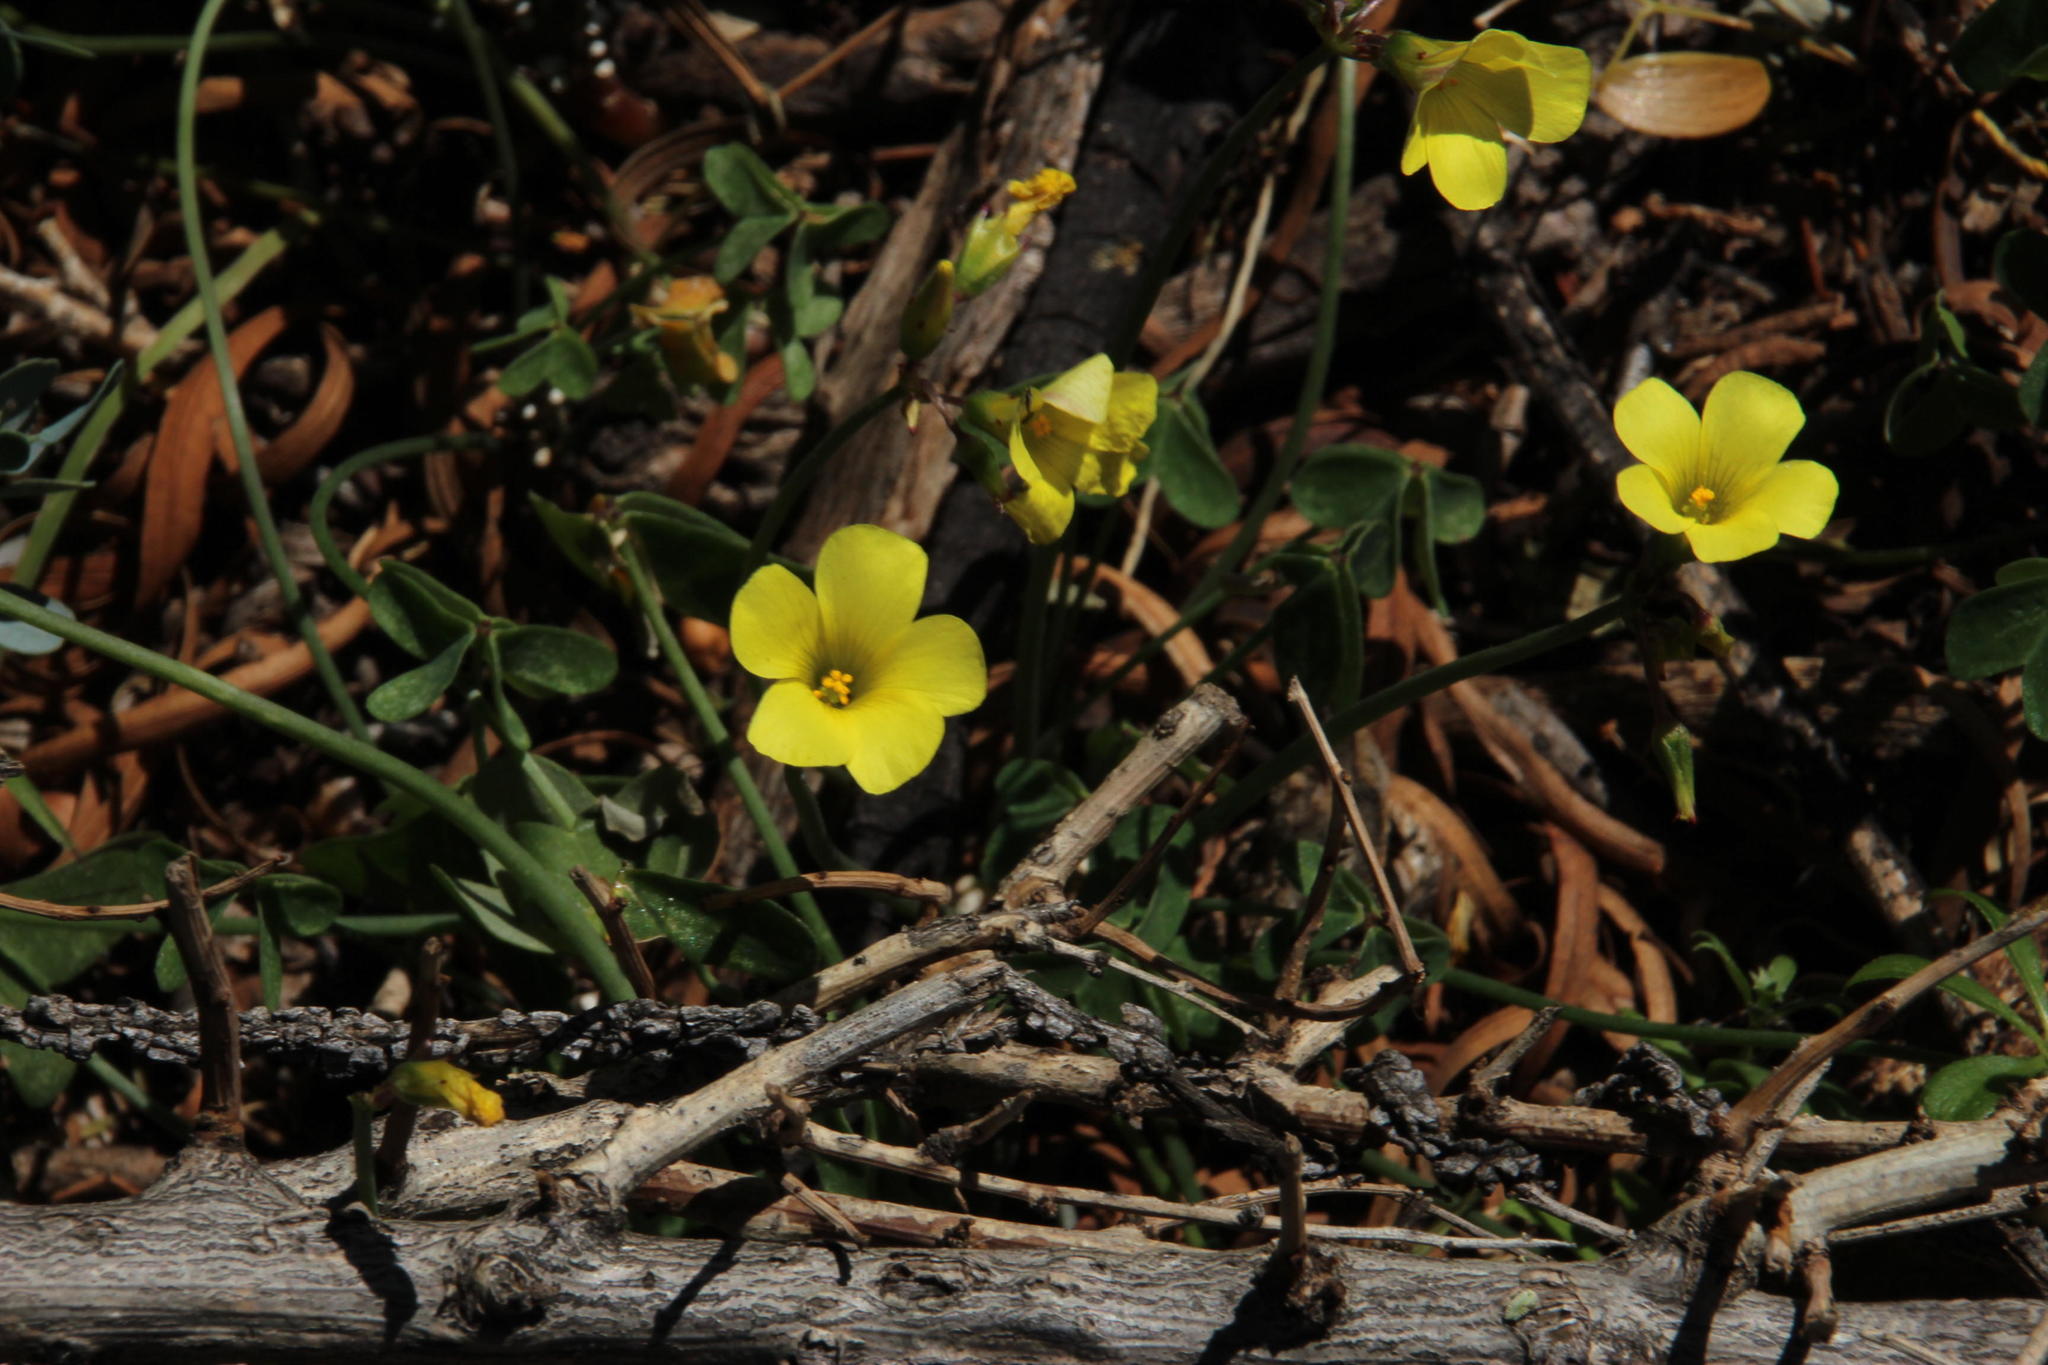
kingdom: Plantae
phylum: Tracheophyta
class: Magnoliopsida
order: Oxalidales
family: Oxalidaceae
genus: Oxalis
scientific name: Oxalis pes-caprae
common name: Bermuda-buttercup
